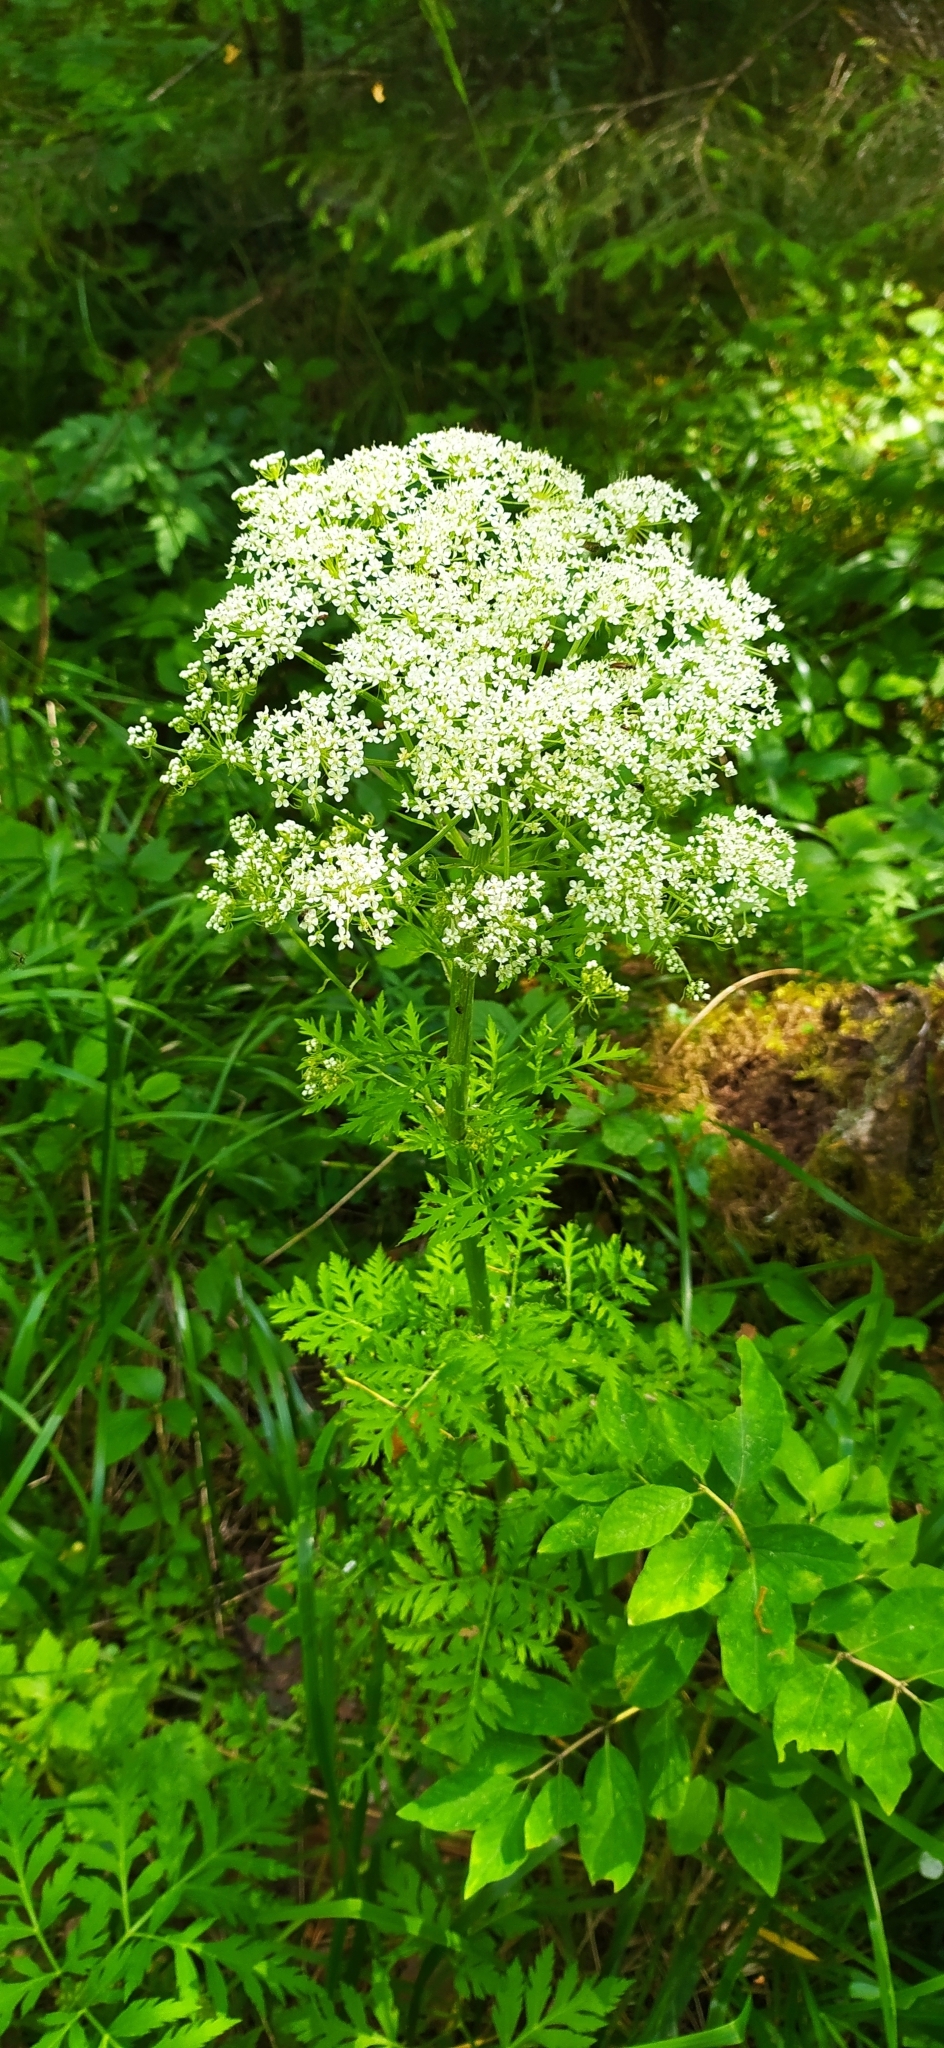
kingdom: Plantae
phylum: Tracheophyta
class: Magnoliopsida
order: Apiales
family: Apiaceae
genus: Pleurospermum
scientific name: Pleurospermum uralense
